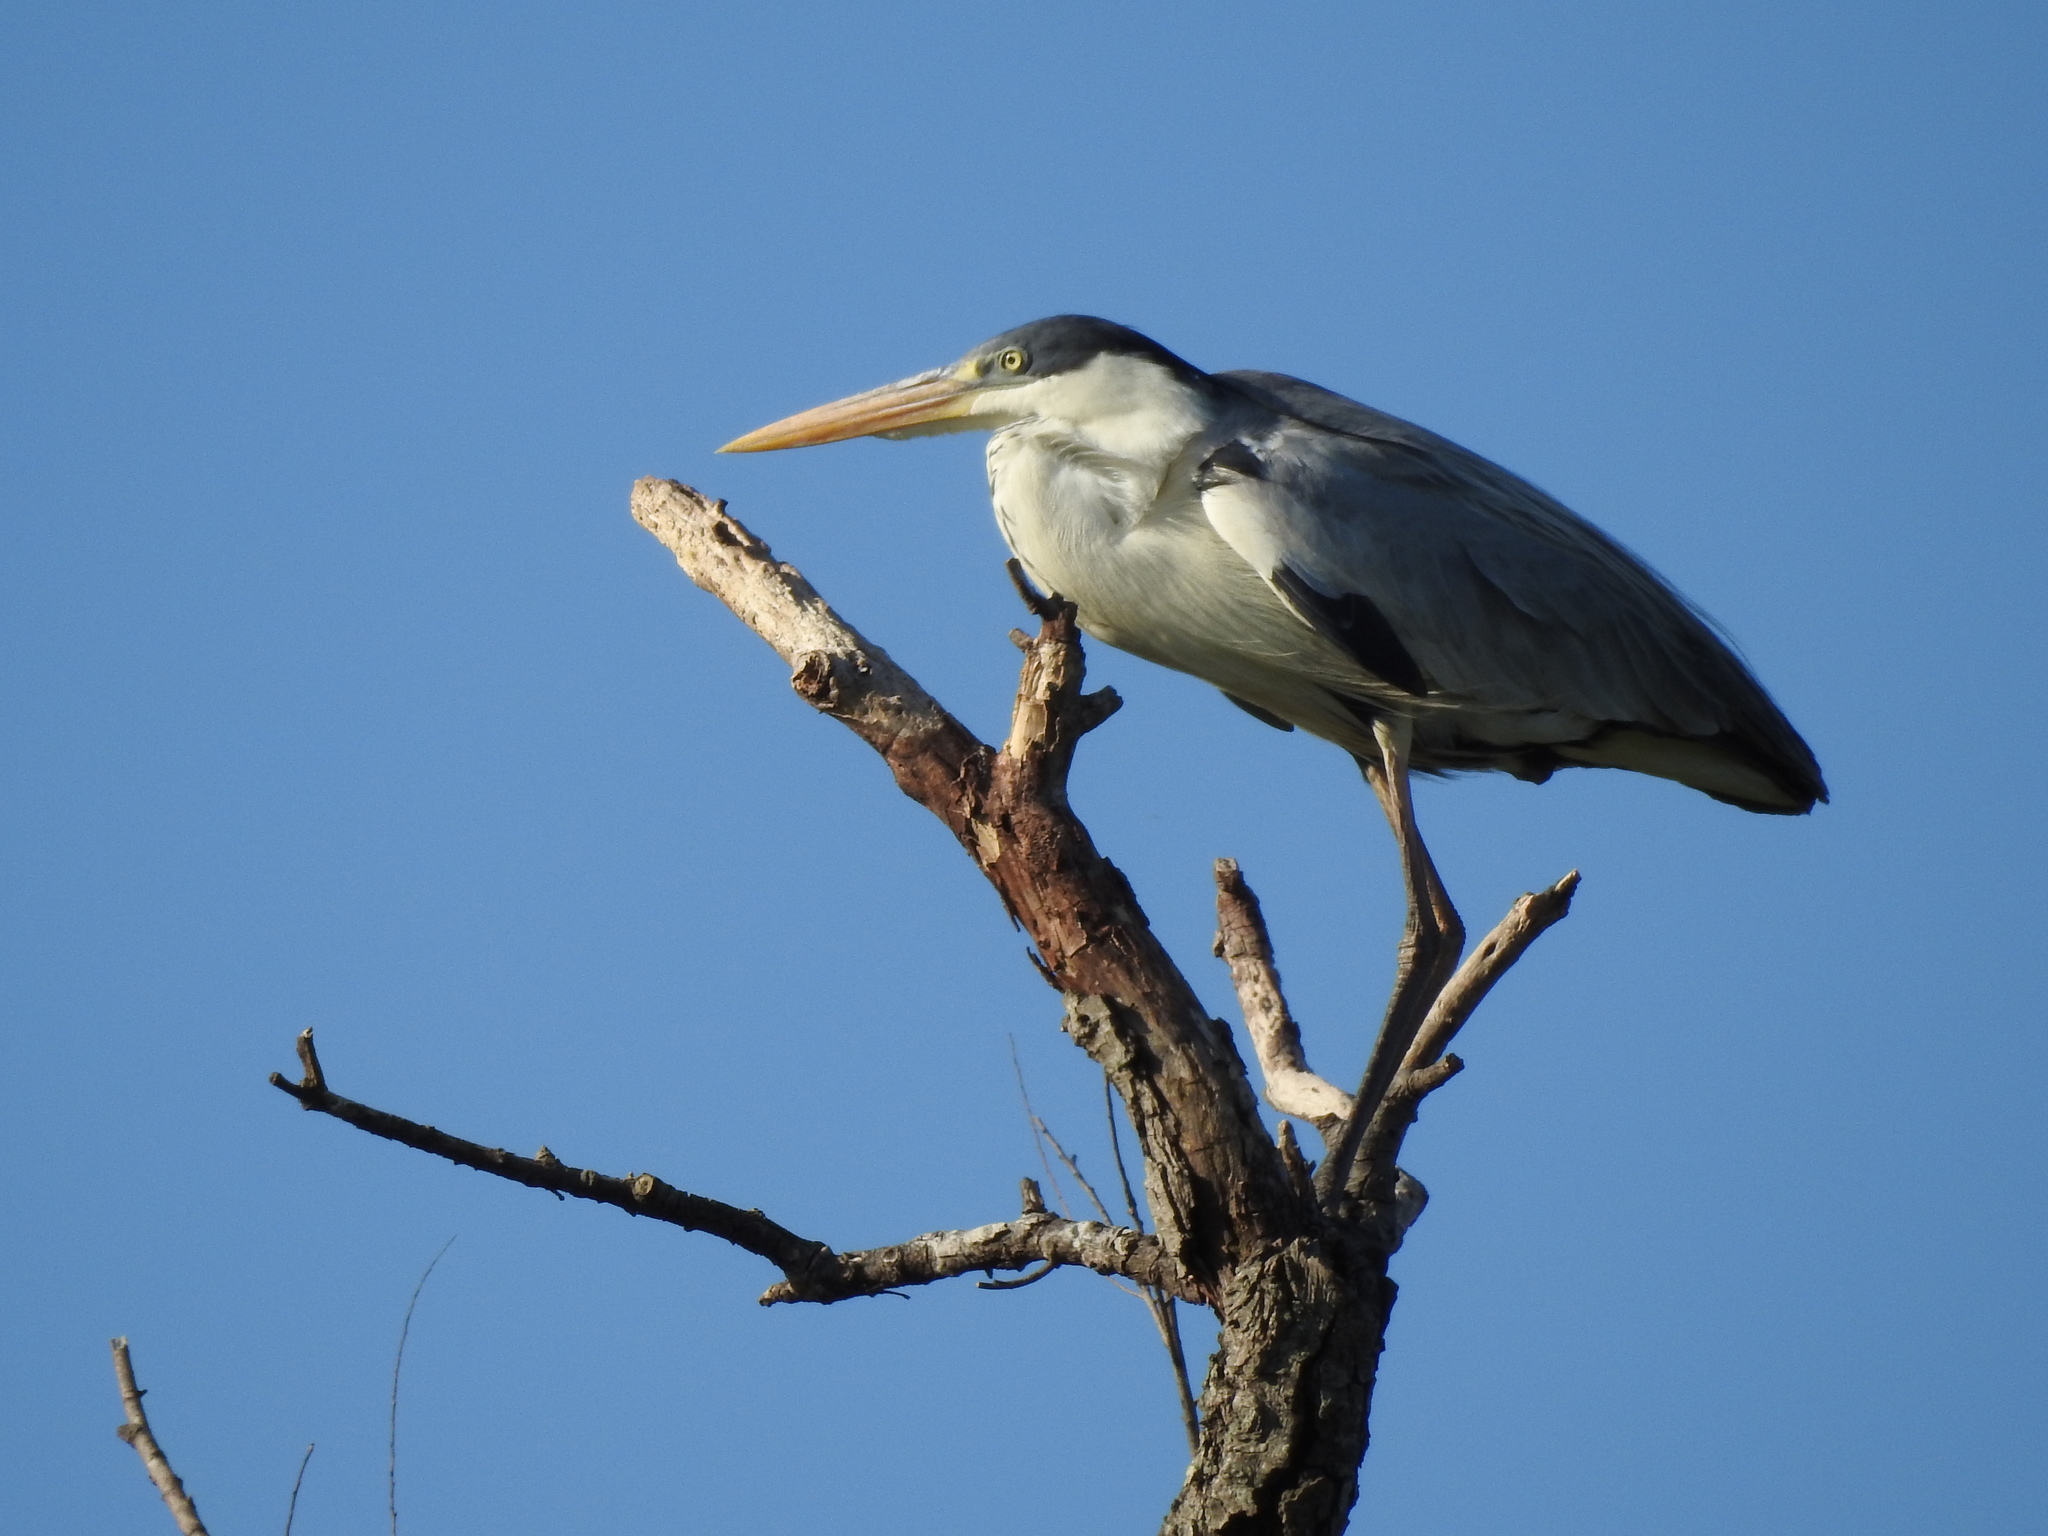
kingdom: Animalia
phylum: Chordata
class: Aves
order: Pelecaniformes
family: Ardeidae
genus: Ardea
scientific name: Ardea cocoi
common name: Cocoi heron
